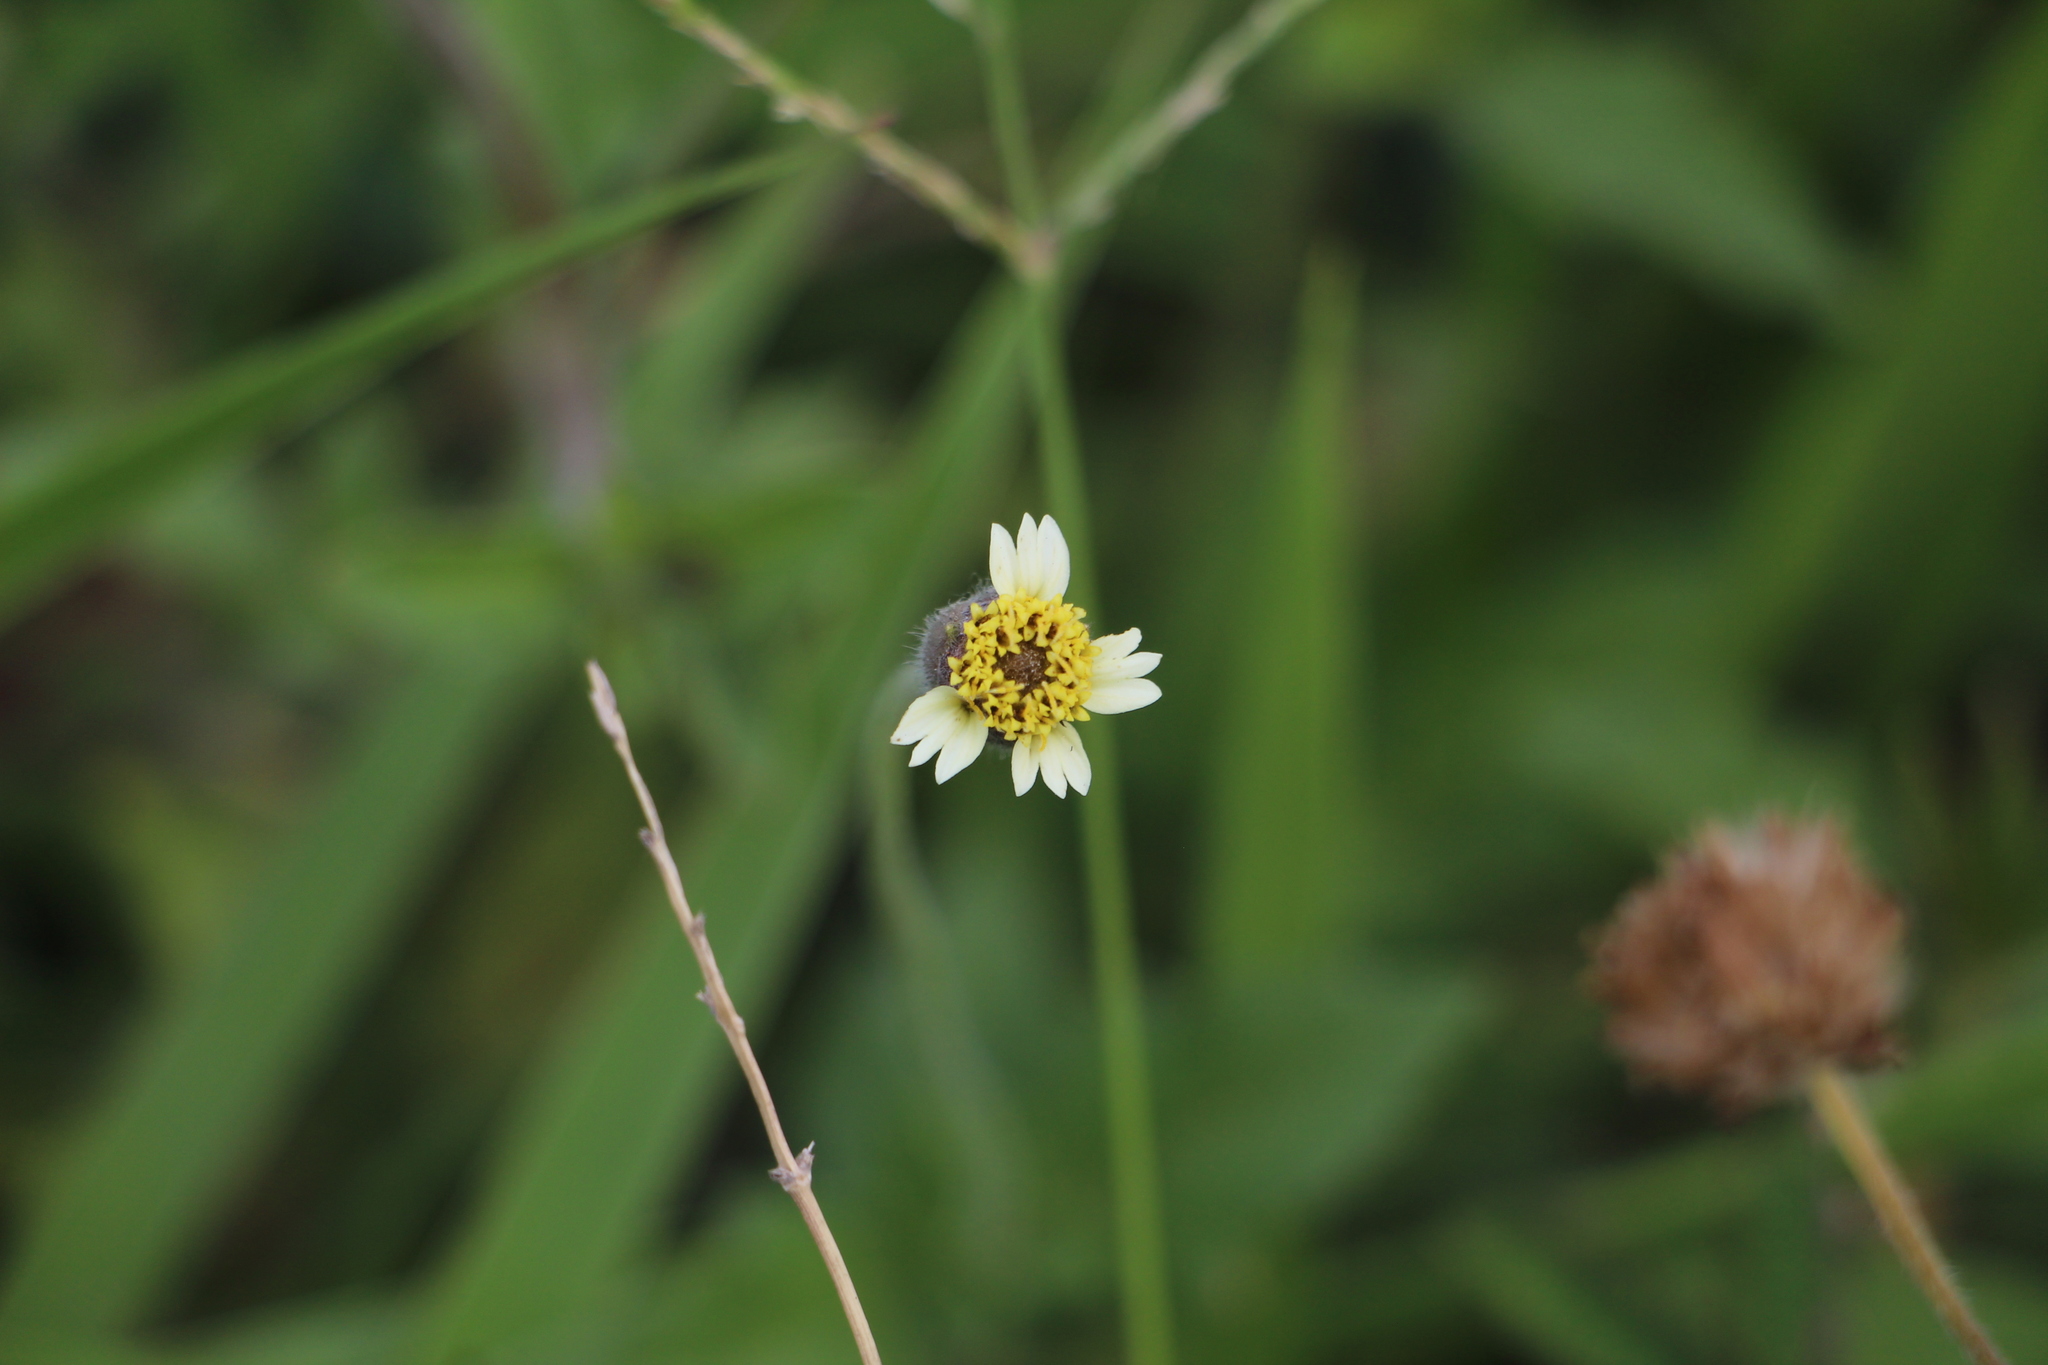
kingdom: Plantae
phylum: Tracheophyta
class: Magnoliopsida
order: Asterales
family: Asteraceae
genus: Tridax
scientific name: Tridax procumbens
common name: Coatbuttons
